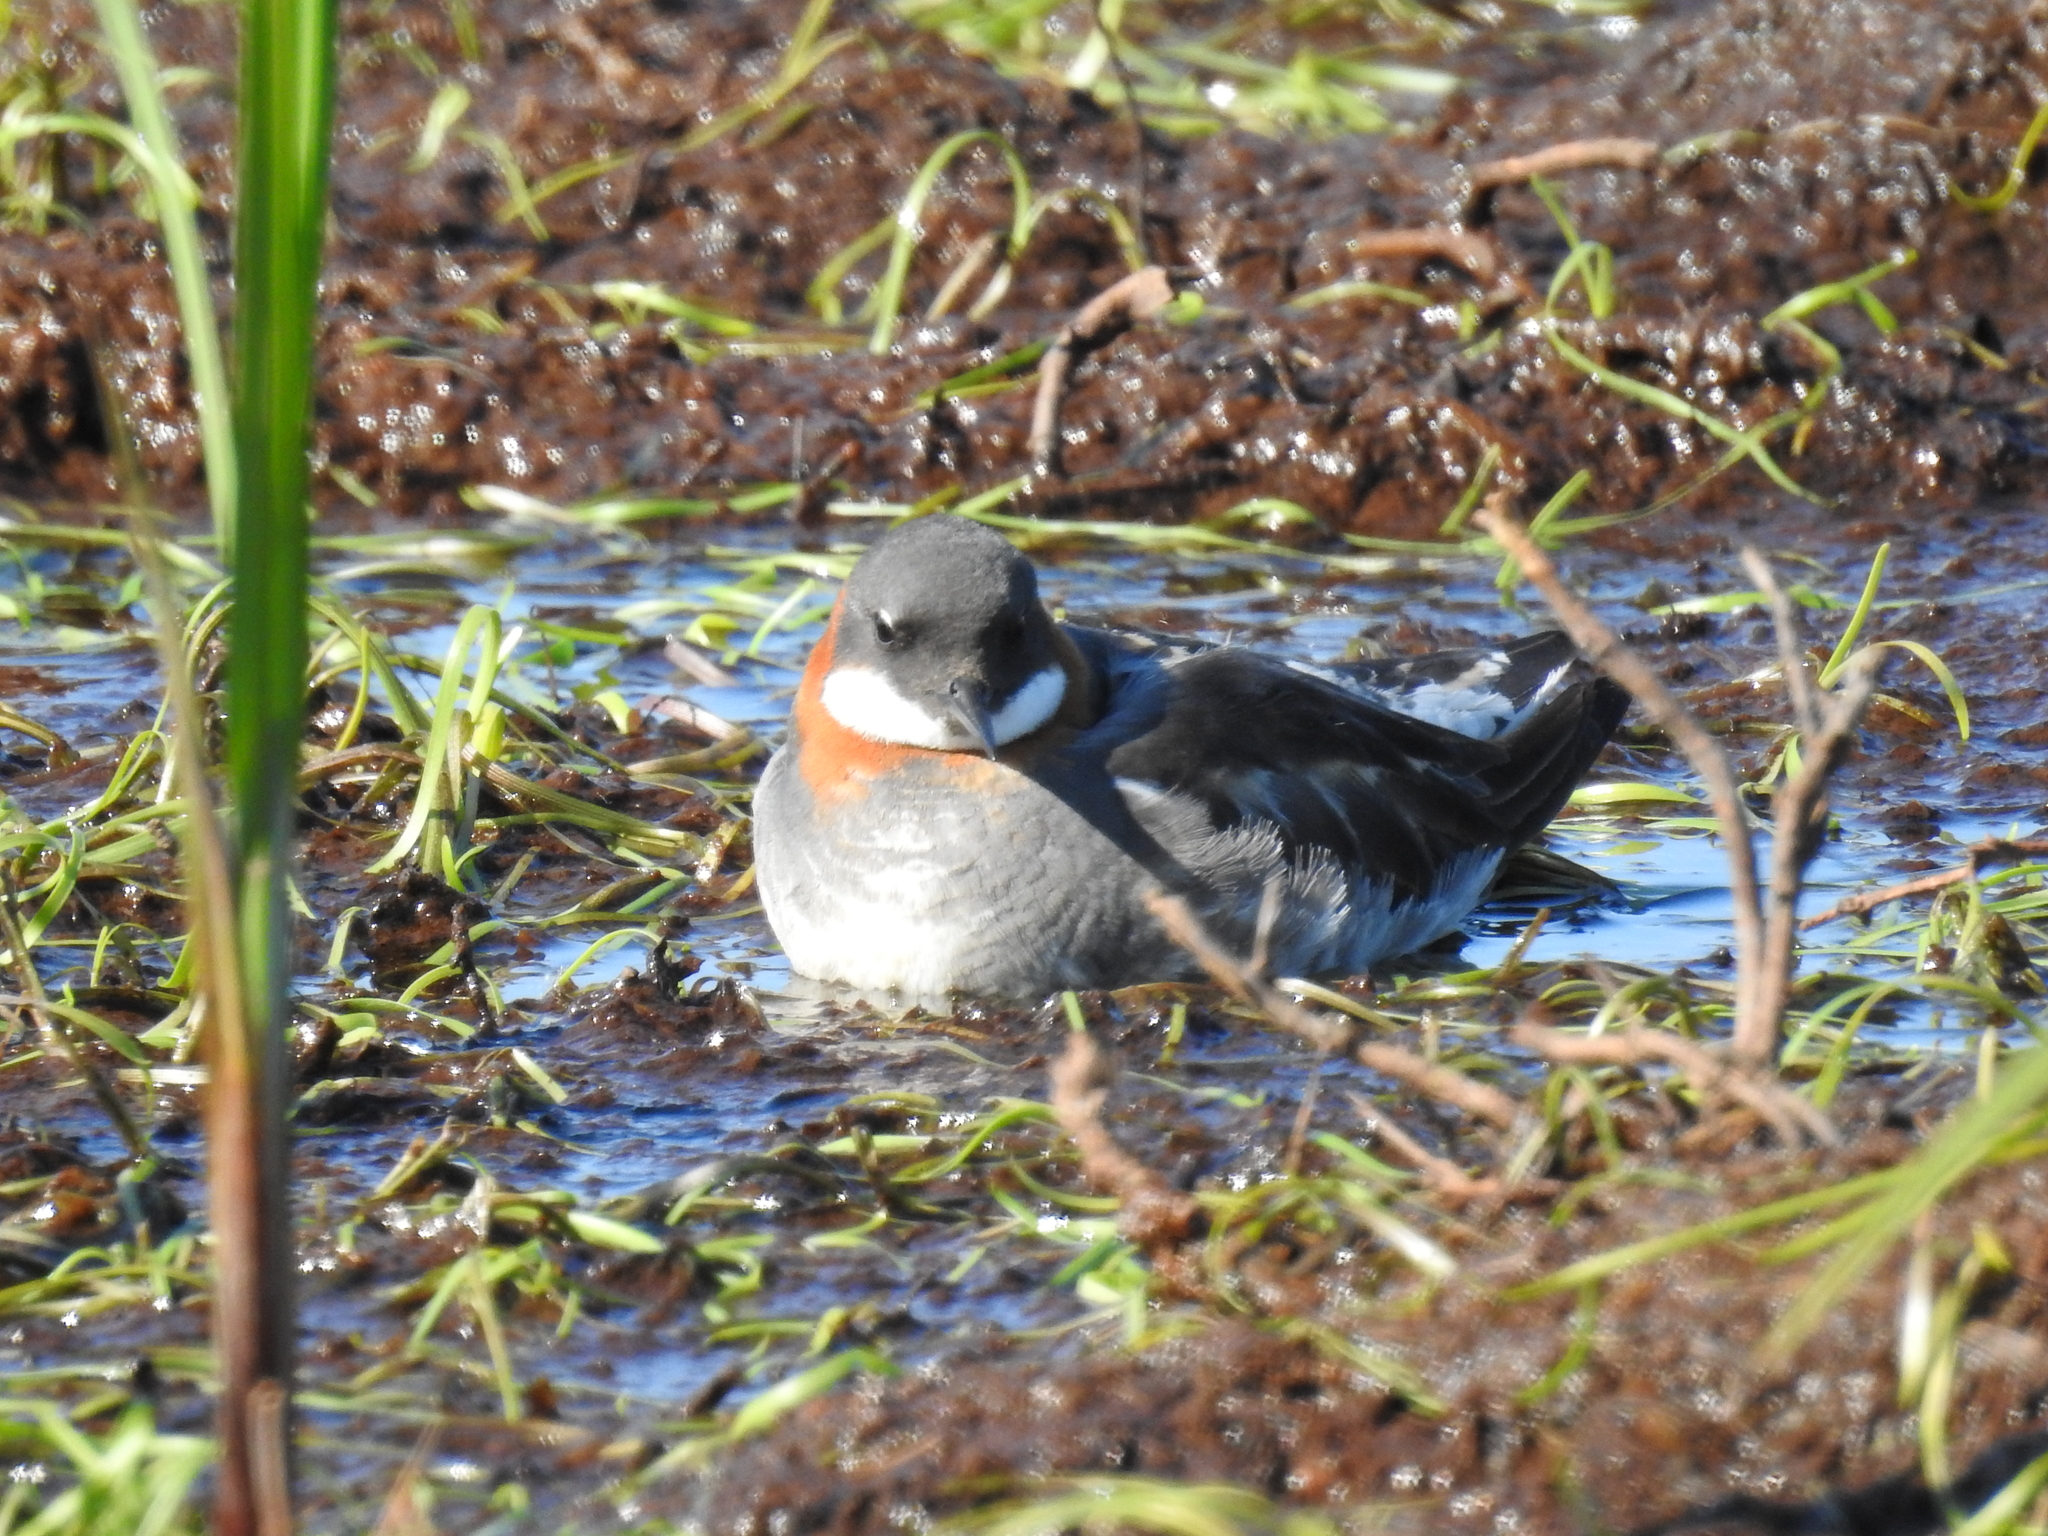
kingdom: Animalia
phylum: Chordata
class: Aves
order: Charadriiformes
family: Scolopacidae
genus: Phalaropus
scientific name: Phalaropus lobatus
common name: Red-necked phalarope
